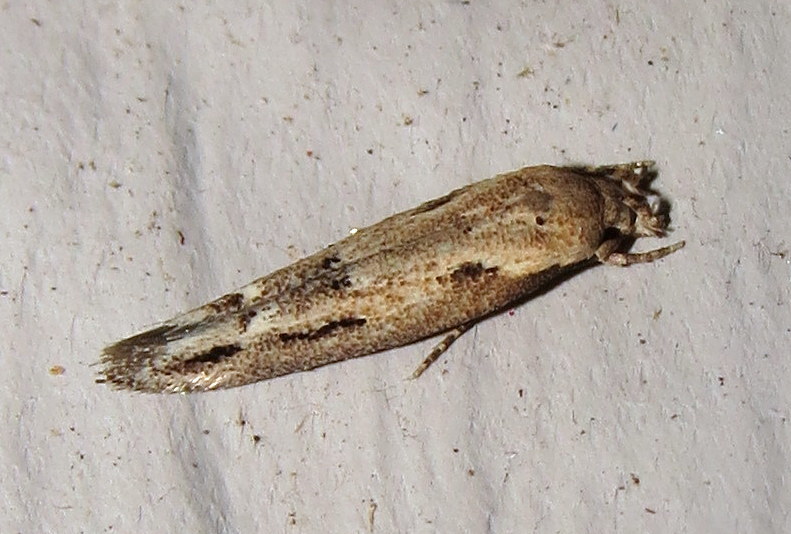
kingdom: Animalia
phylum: Arthropoda
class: Insecta
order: Lepidoptera
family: Momphidae
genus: Mompha
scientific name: Mompha brevivittella
